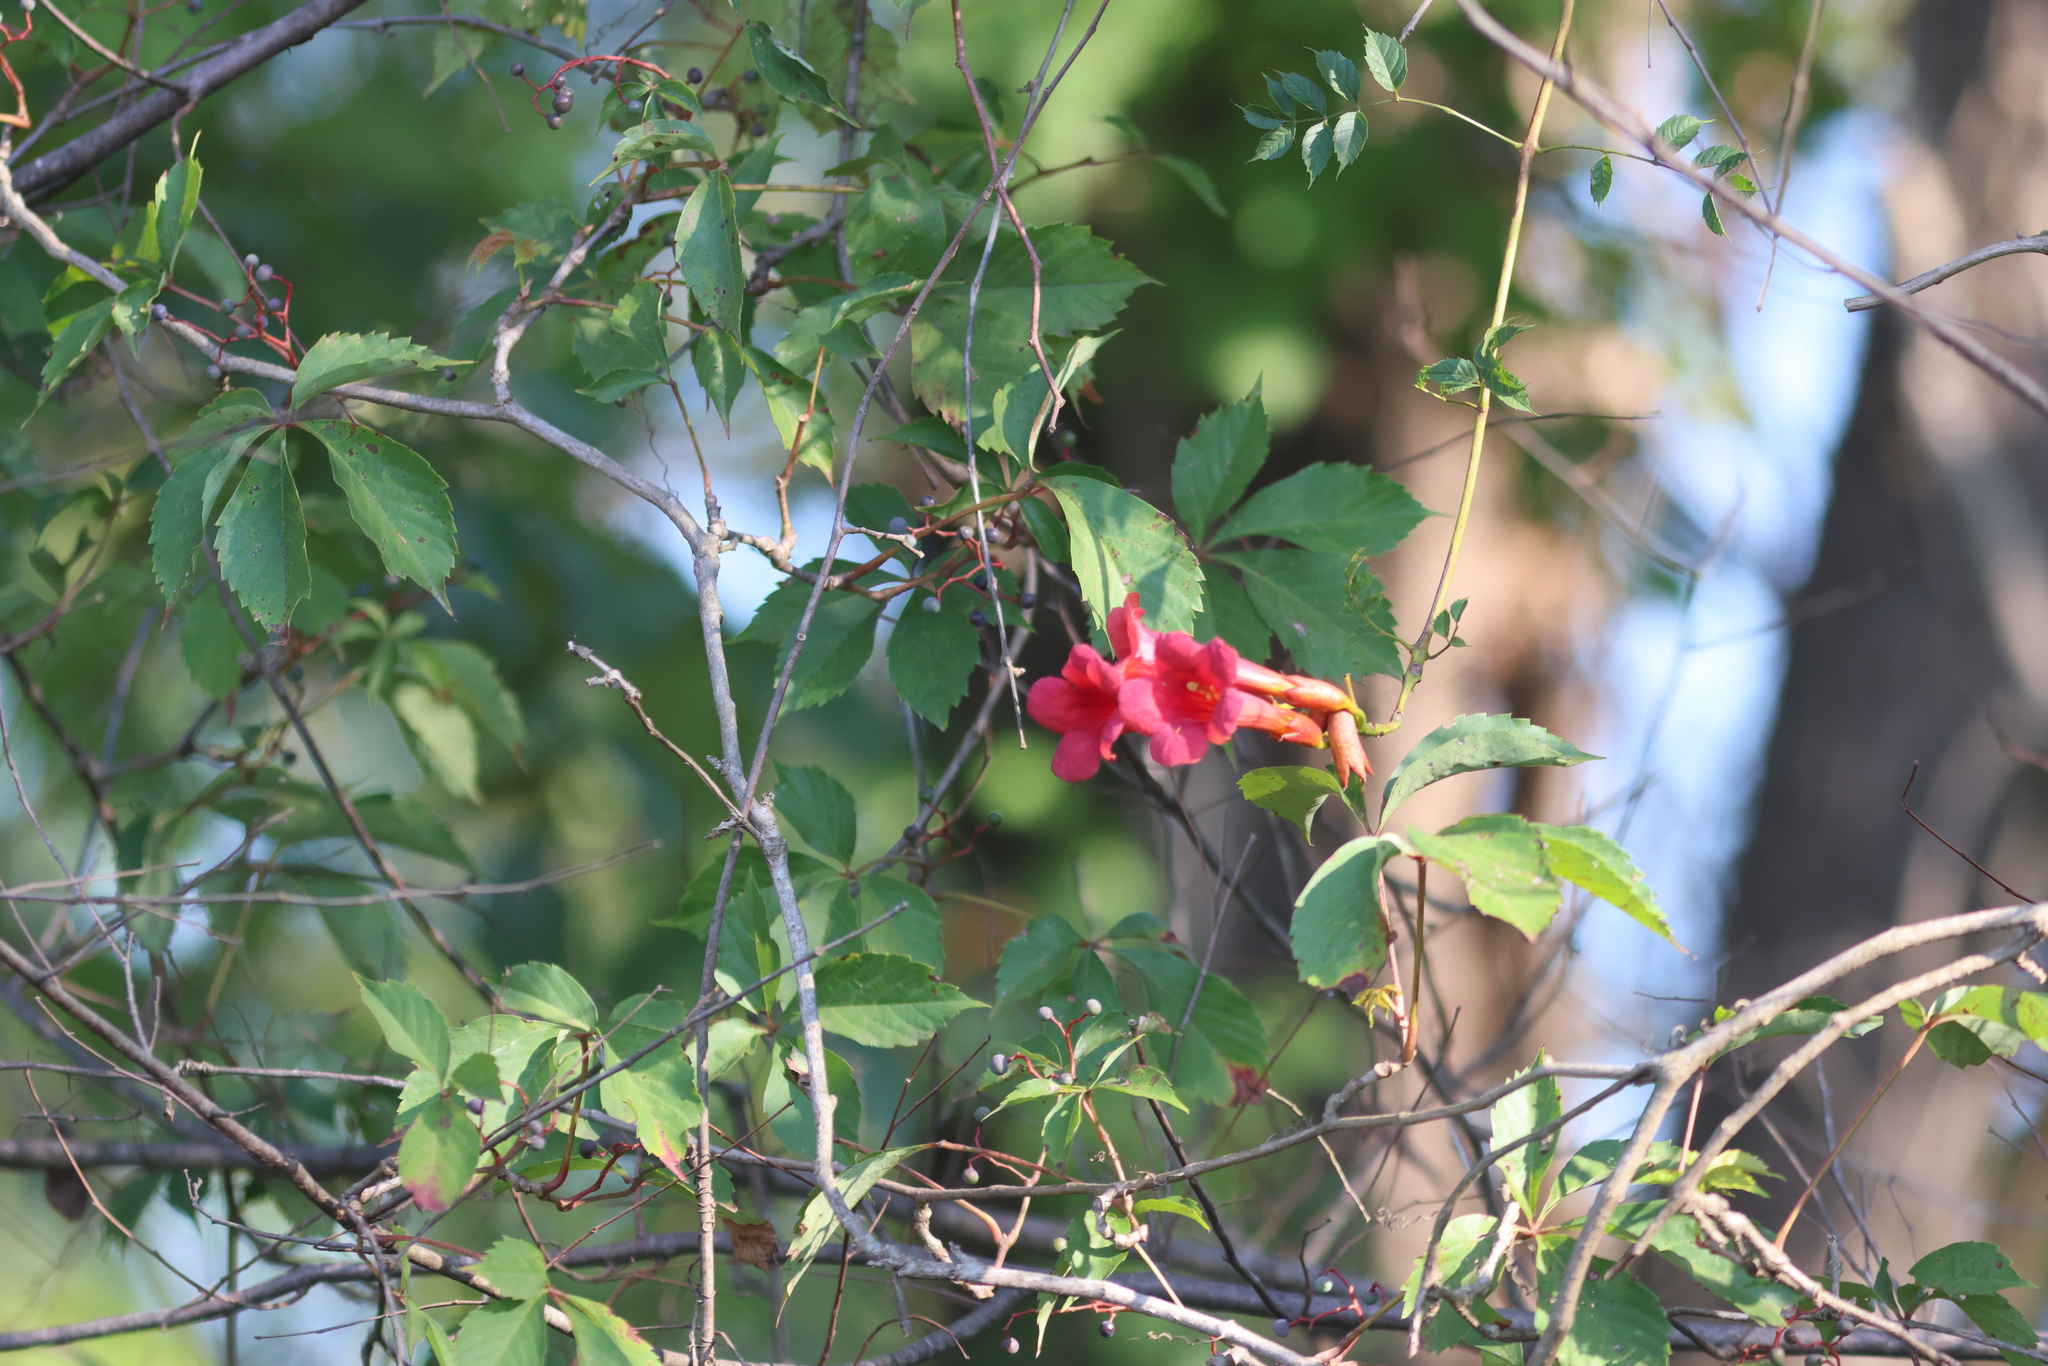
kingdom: Plantae
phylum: Tracheophyta
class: Magnoliopsida
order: Lamiales
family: Bignoniaceae
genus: Campsis
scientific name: Campsis radicans
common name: Trumpet-creeper
